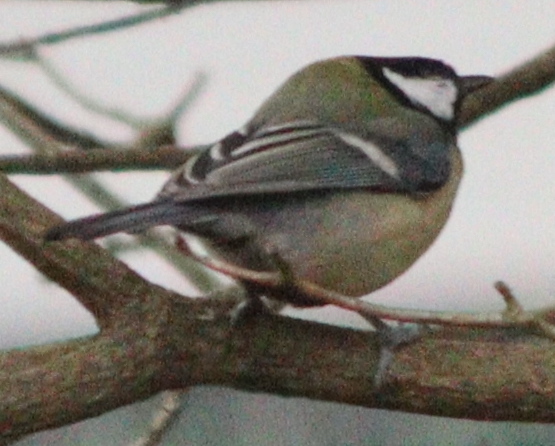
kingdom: Animalia
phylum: Chordata
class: Aves
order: Passeriformes
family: Paridae
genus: Parus
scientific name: Parus major
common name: Great tit
